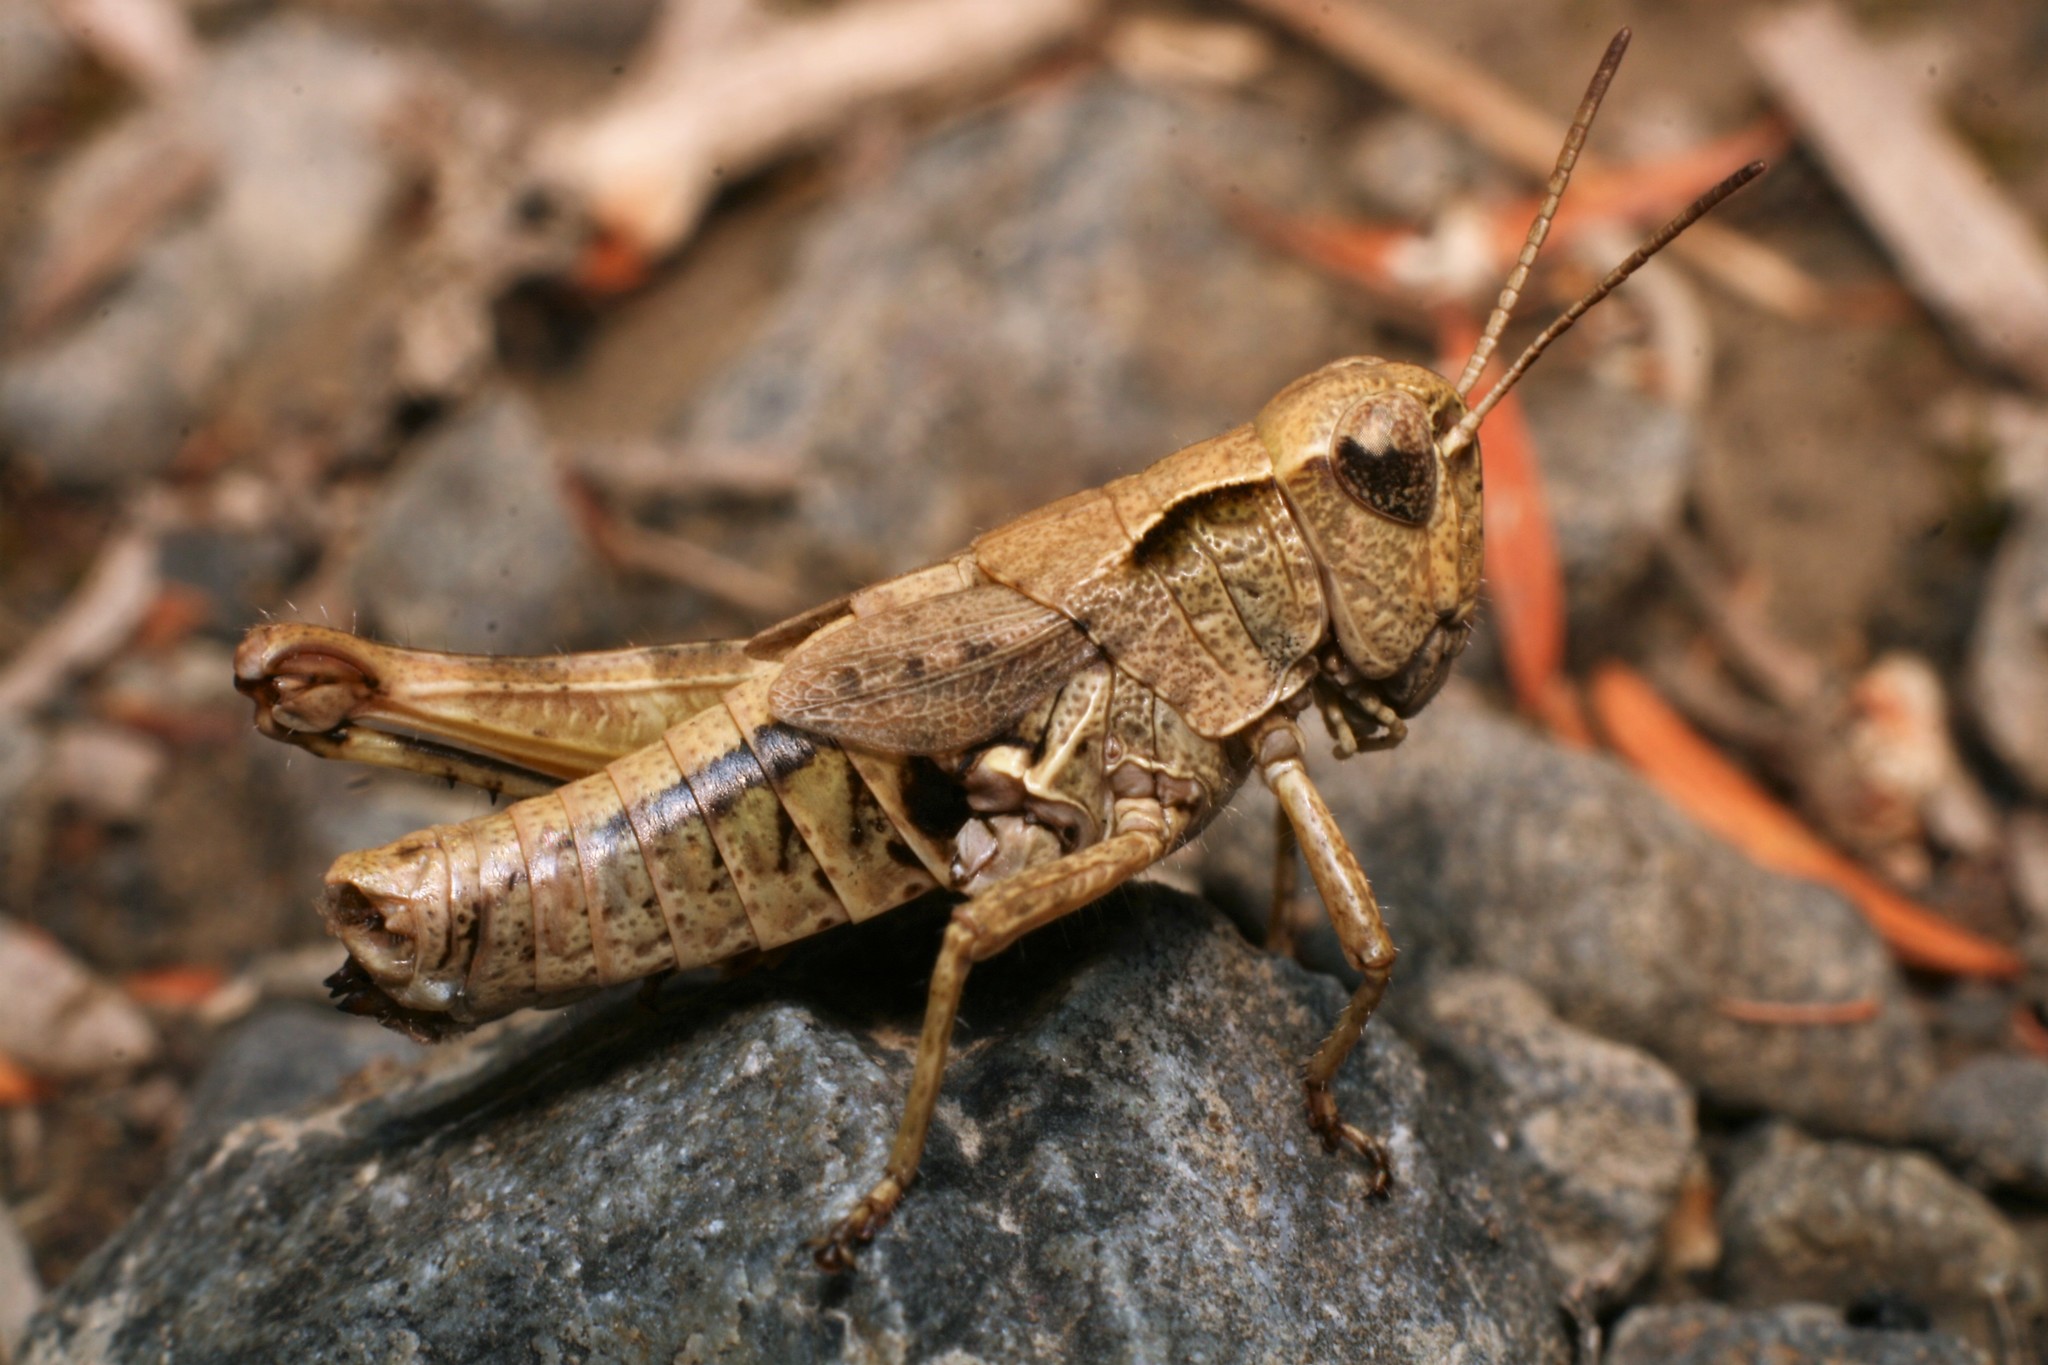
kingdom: Animalia
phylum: Arthropoda
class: Insecta
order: Orthoptera
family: Acrididae
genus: Phaulacridium
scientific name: Phaulacridium marginale
